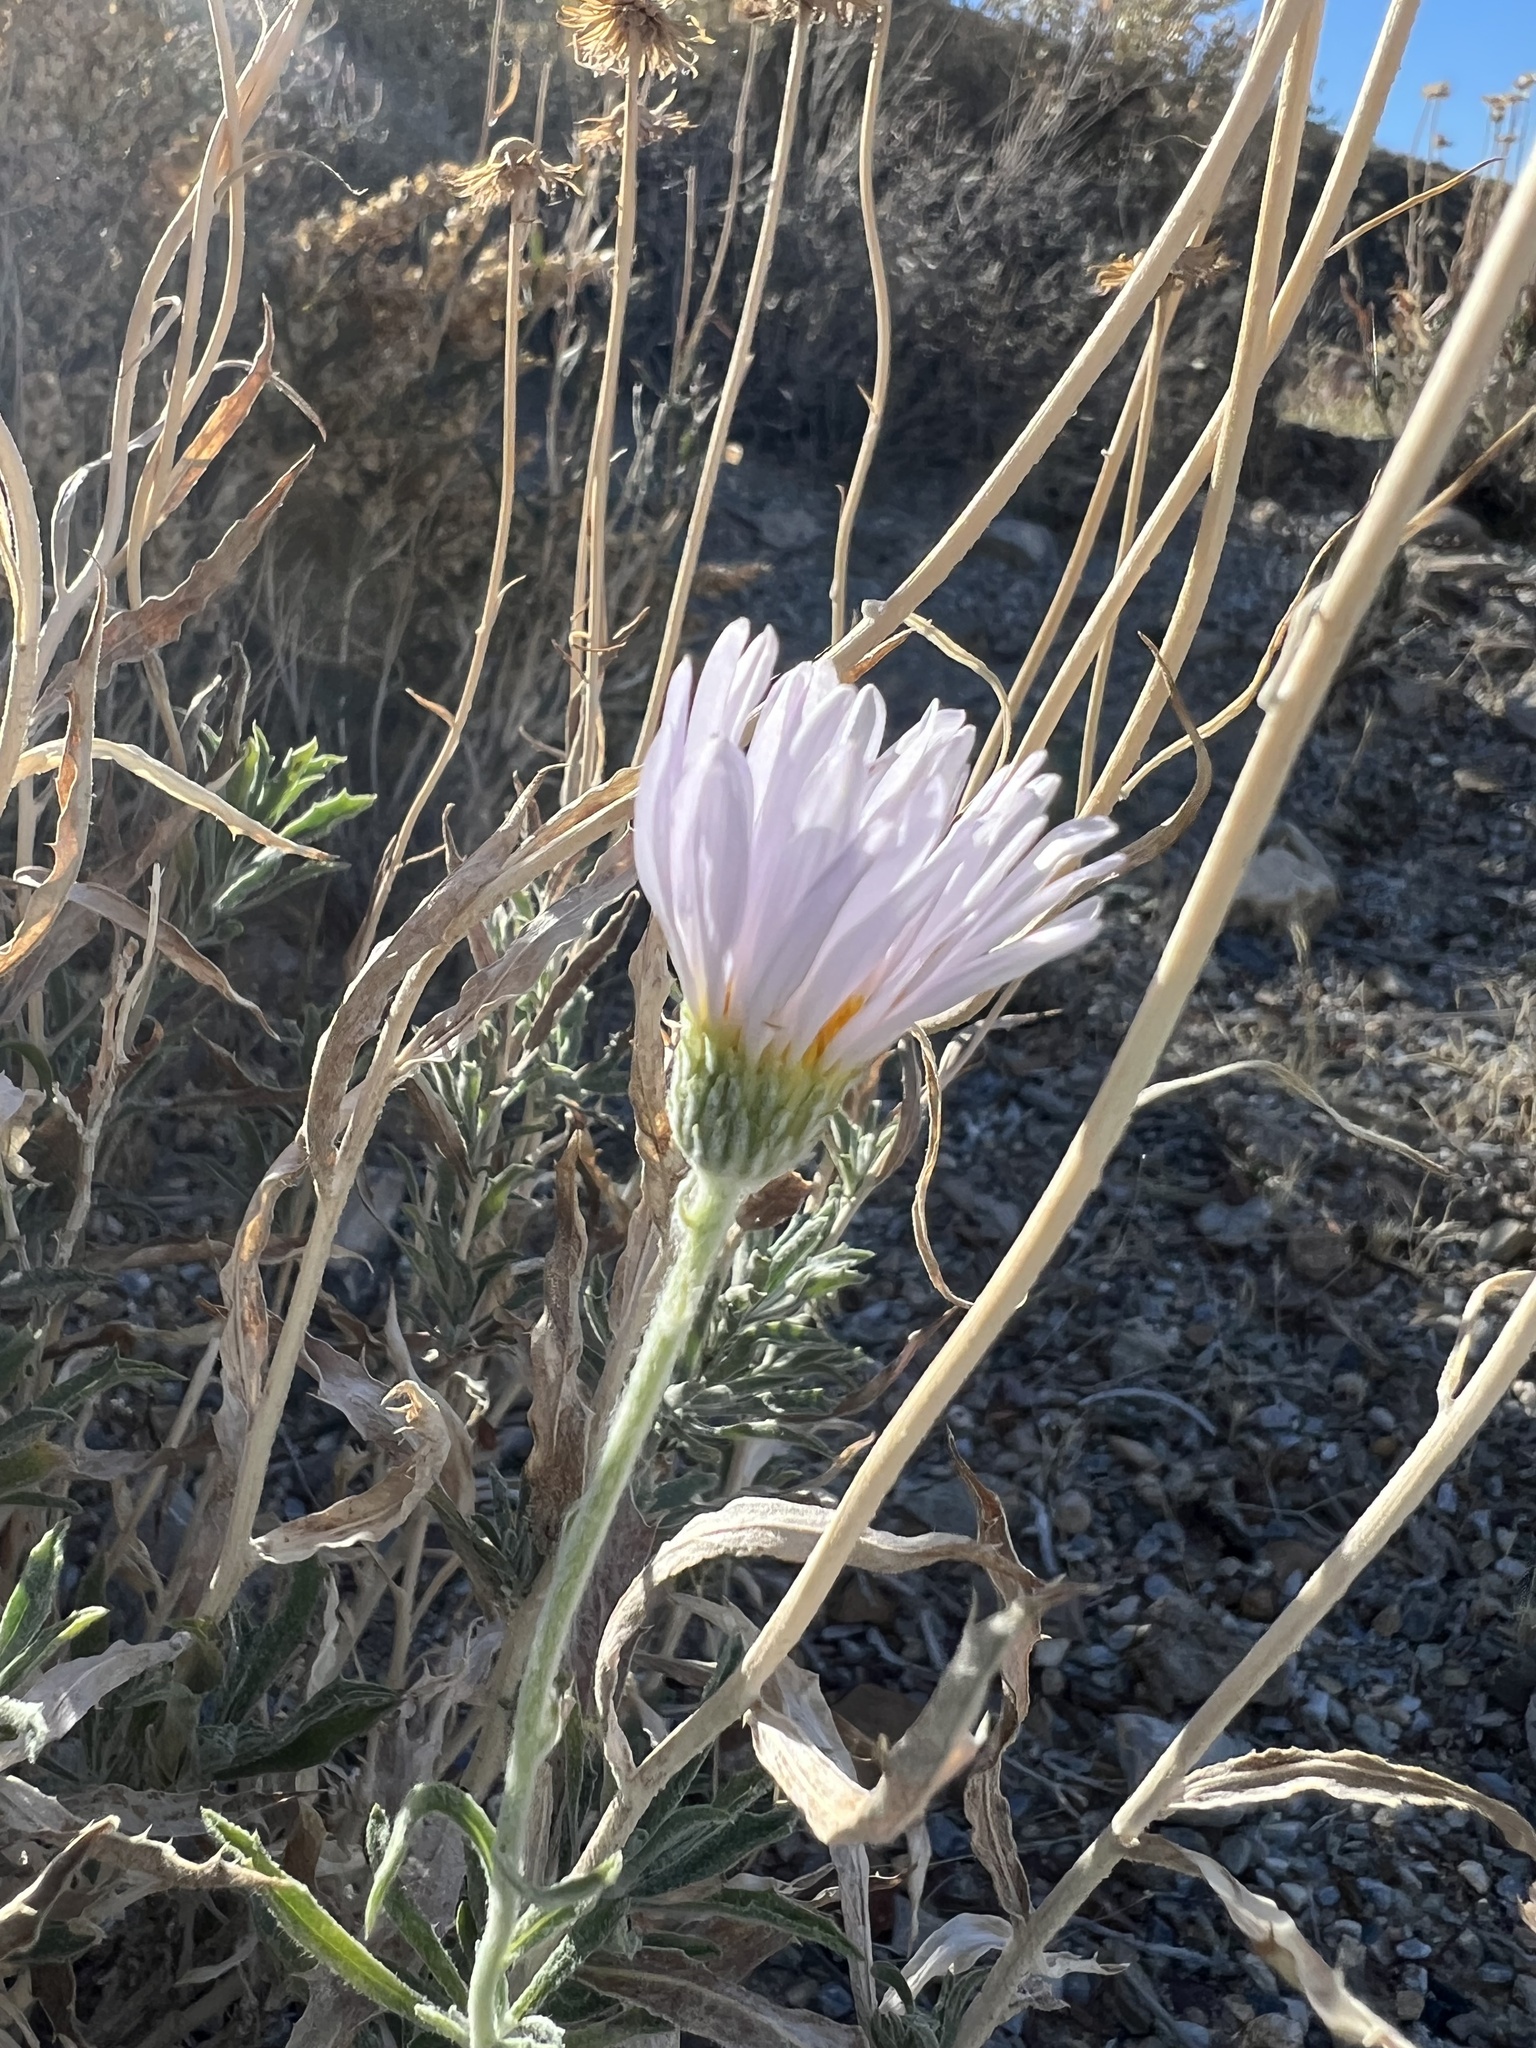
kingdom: Plantae
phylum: Tracheophyta
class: Magnoliopsida
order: Asterales
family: Asteraceae
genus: Xylorhiza
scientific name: Xylorhiza tortifolia
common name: Hurt-leaf woody-aster
